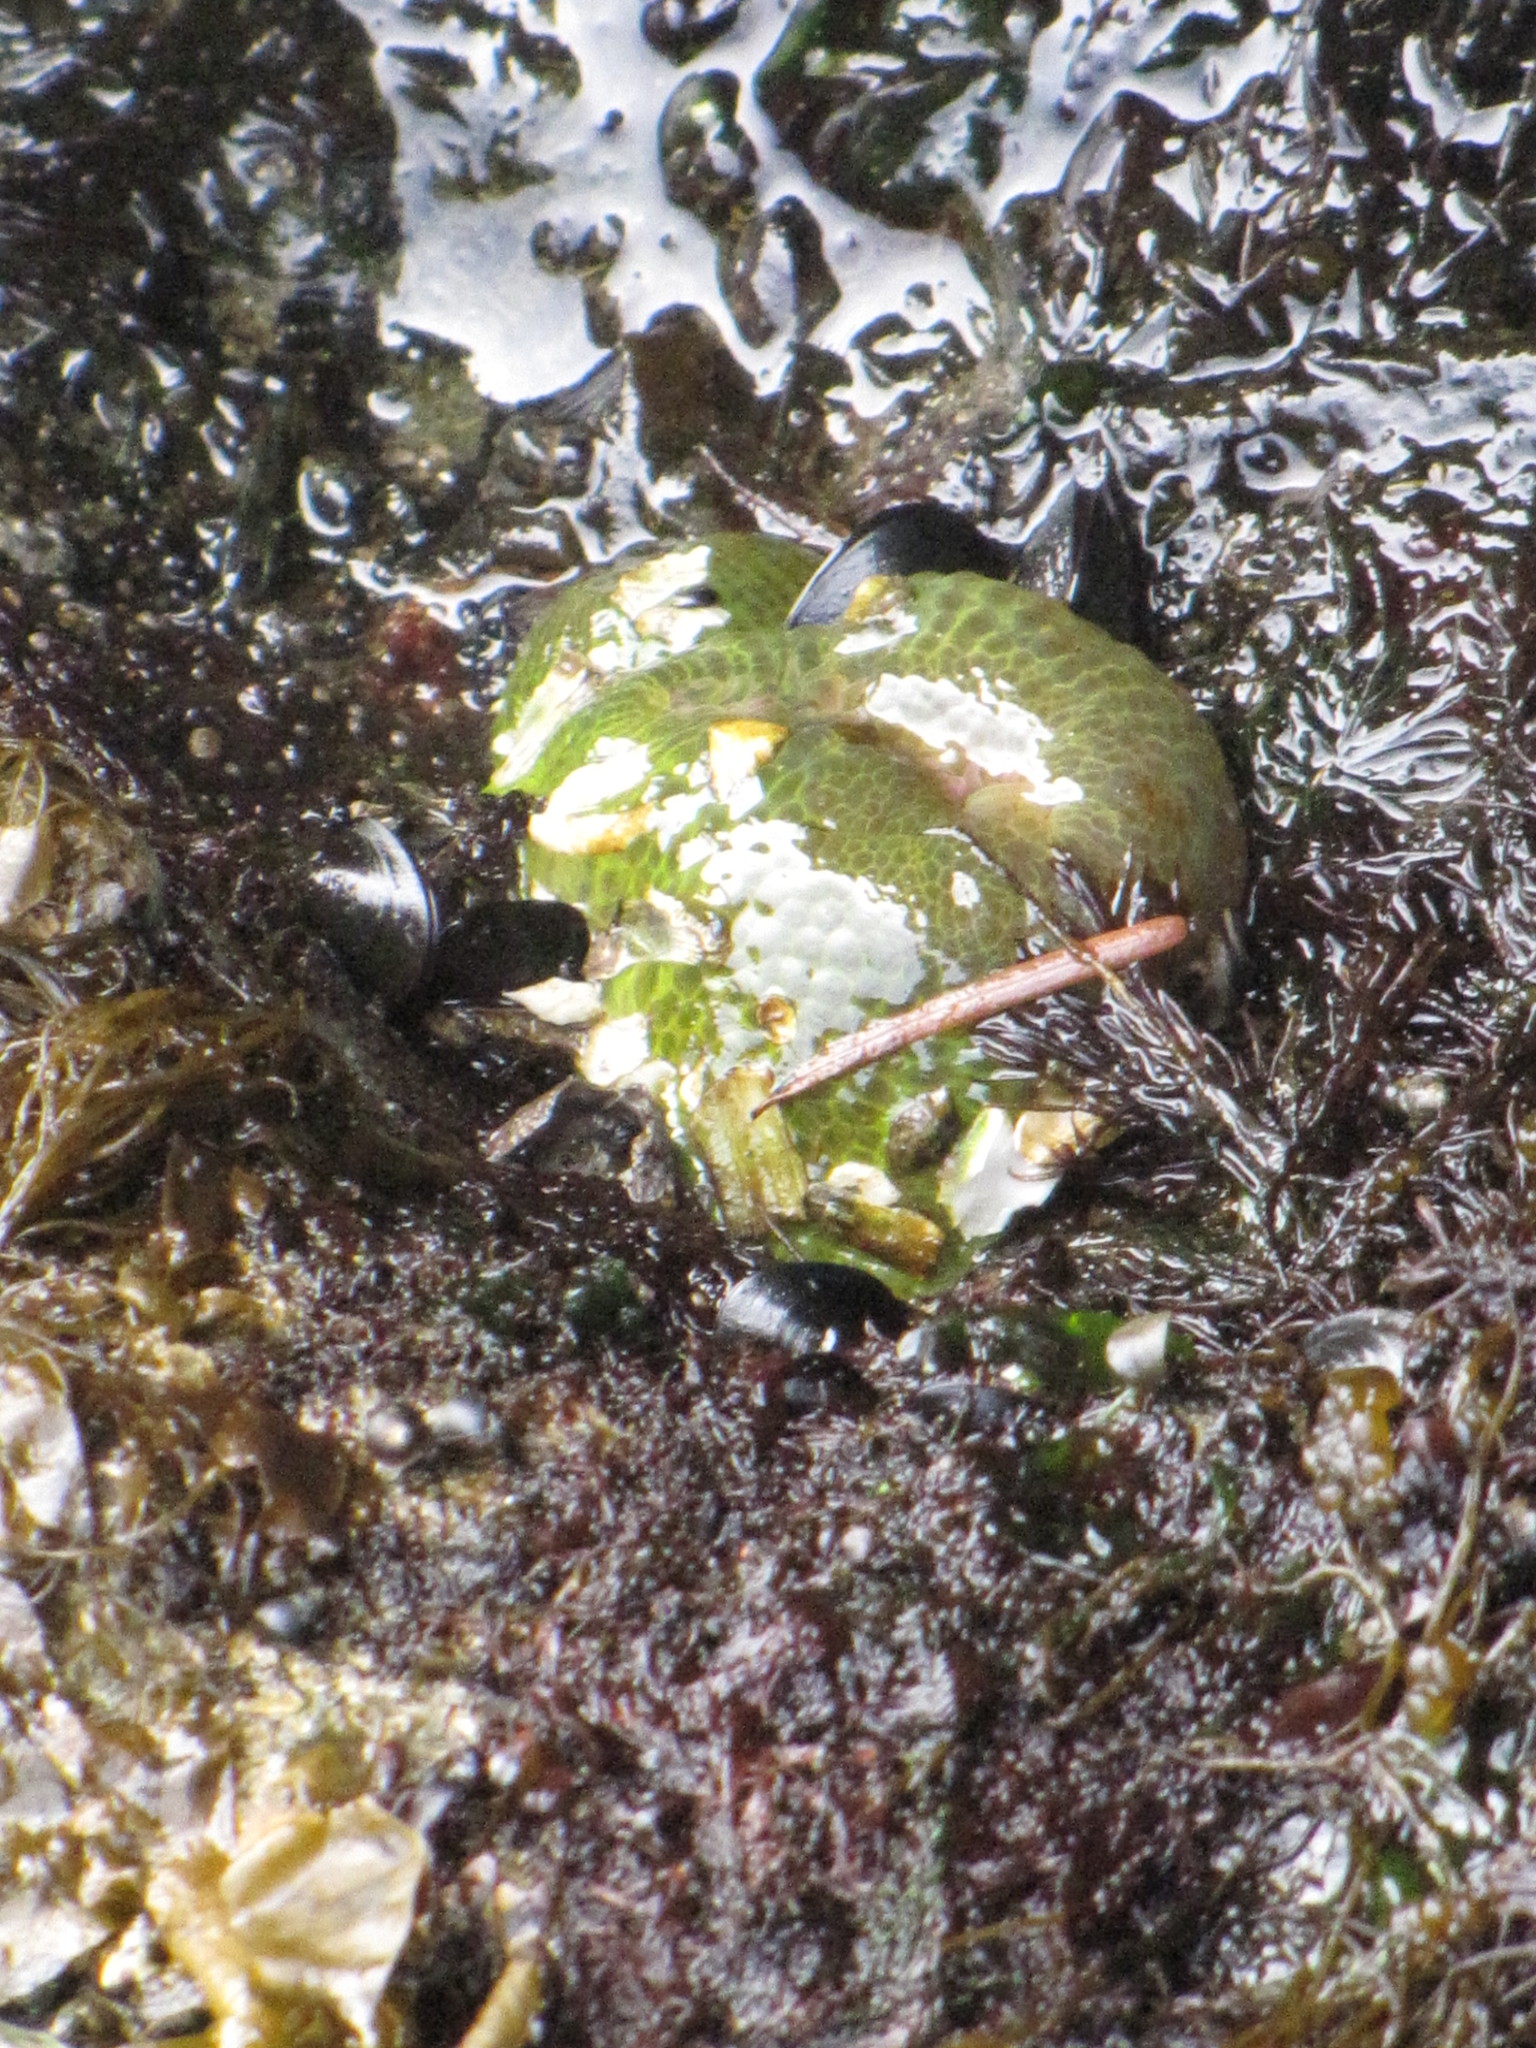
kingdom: Animalia
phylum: Cnidaria
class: Anthozoa
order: Actiniaria
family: Actiniidae
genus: Anthopleura
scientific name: Anthopleura elegantissima
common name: Clonal anemone
